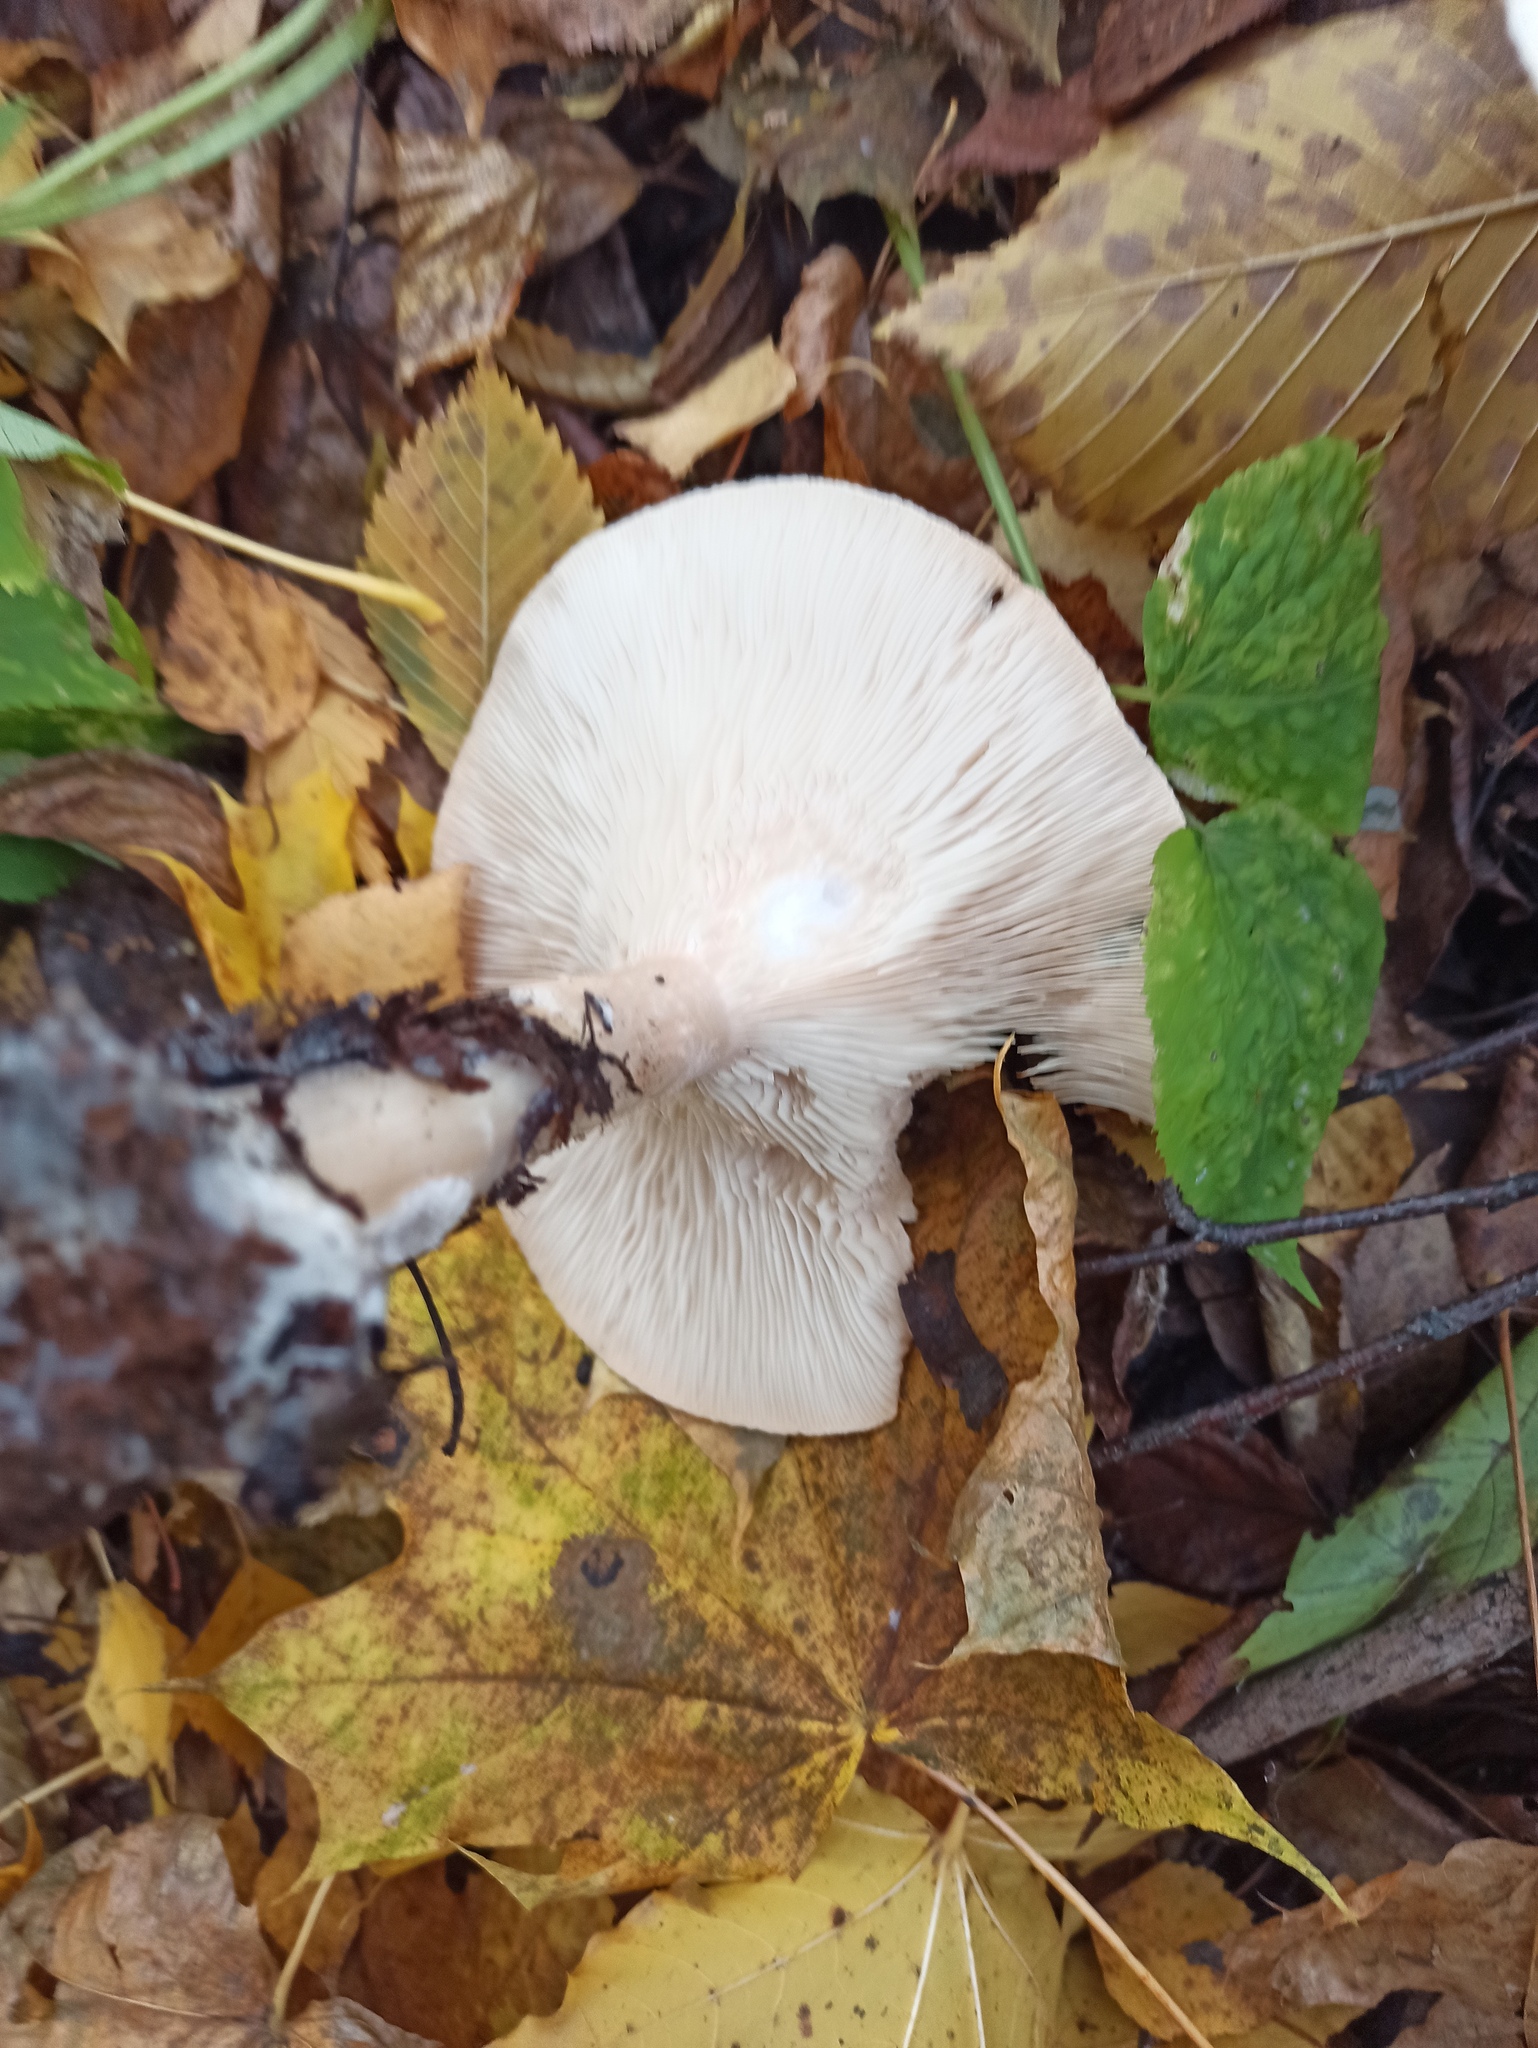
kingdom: Fungi
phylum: Basidiomycota
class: Agaricomycetes
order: Agaricales
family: Tricholomataceae
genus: Infundibulicybe
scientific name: Infundibulicybe geotropa
